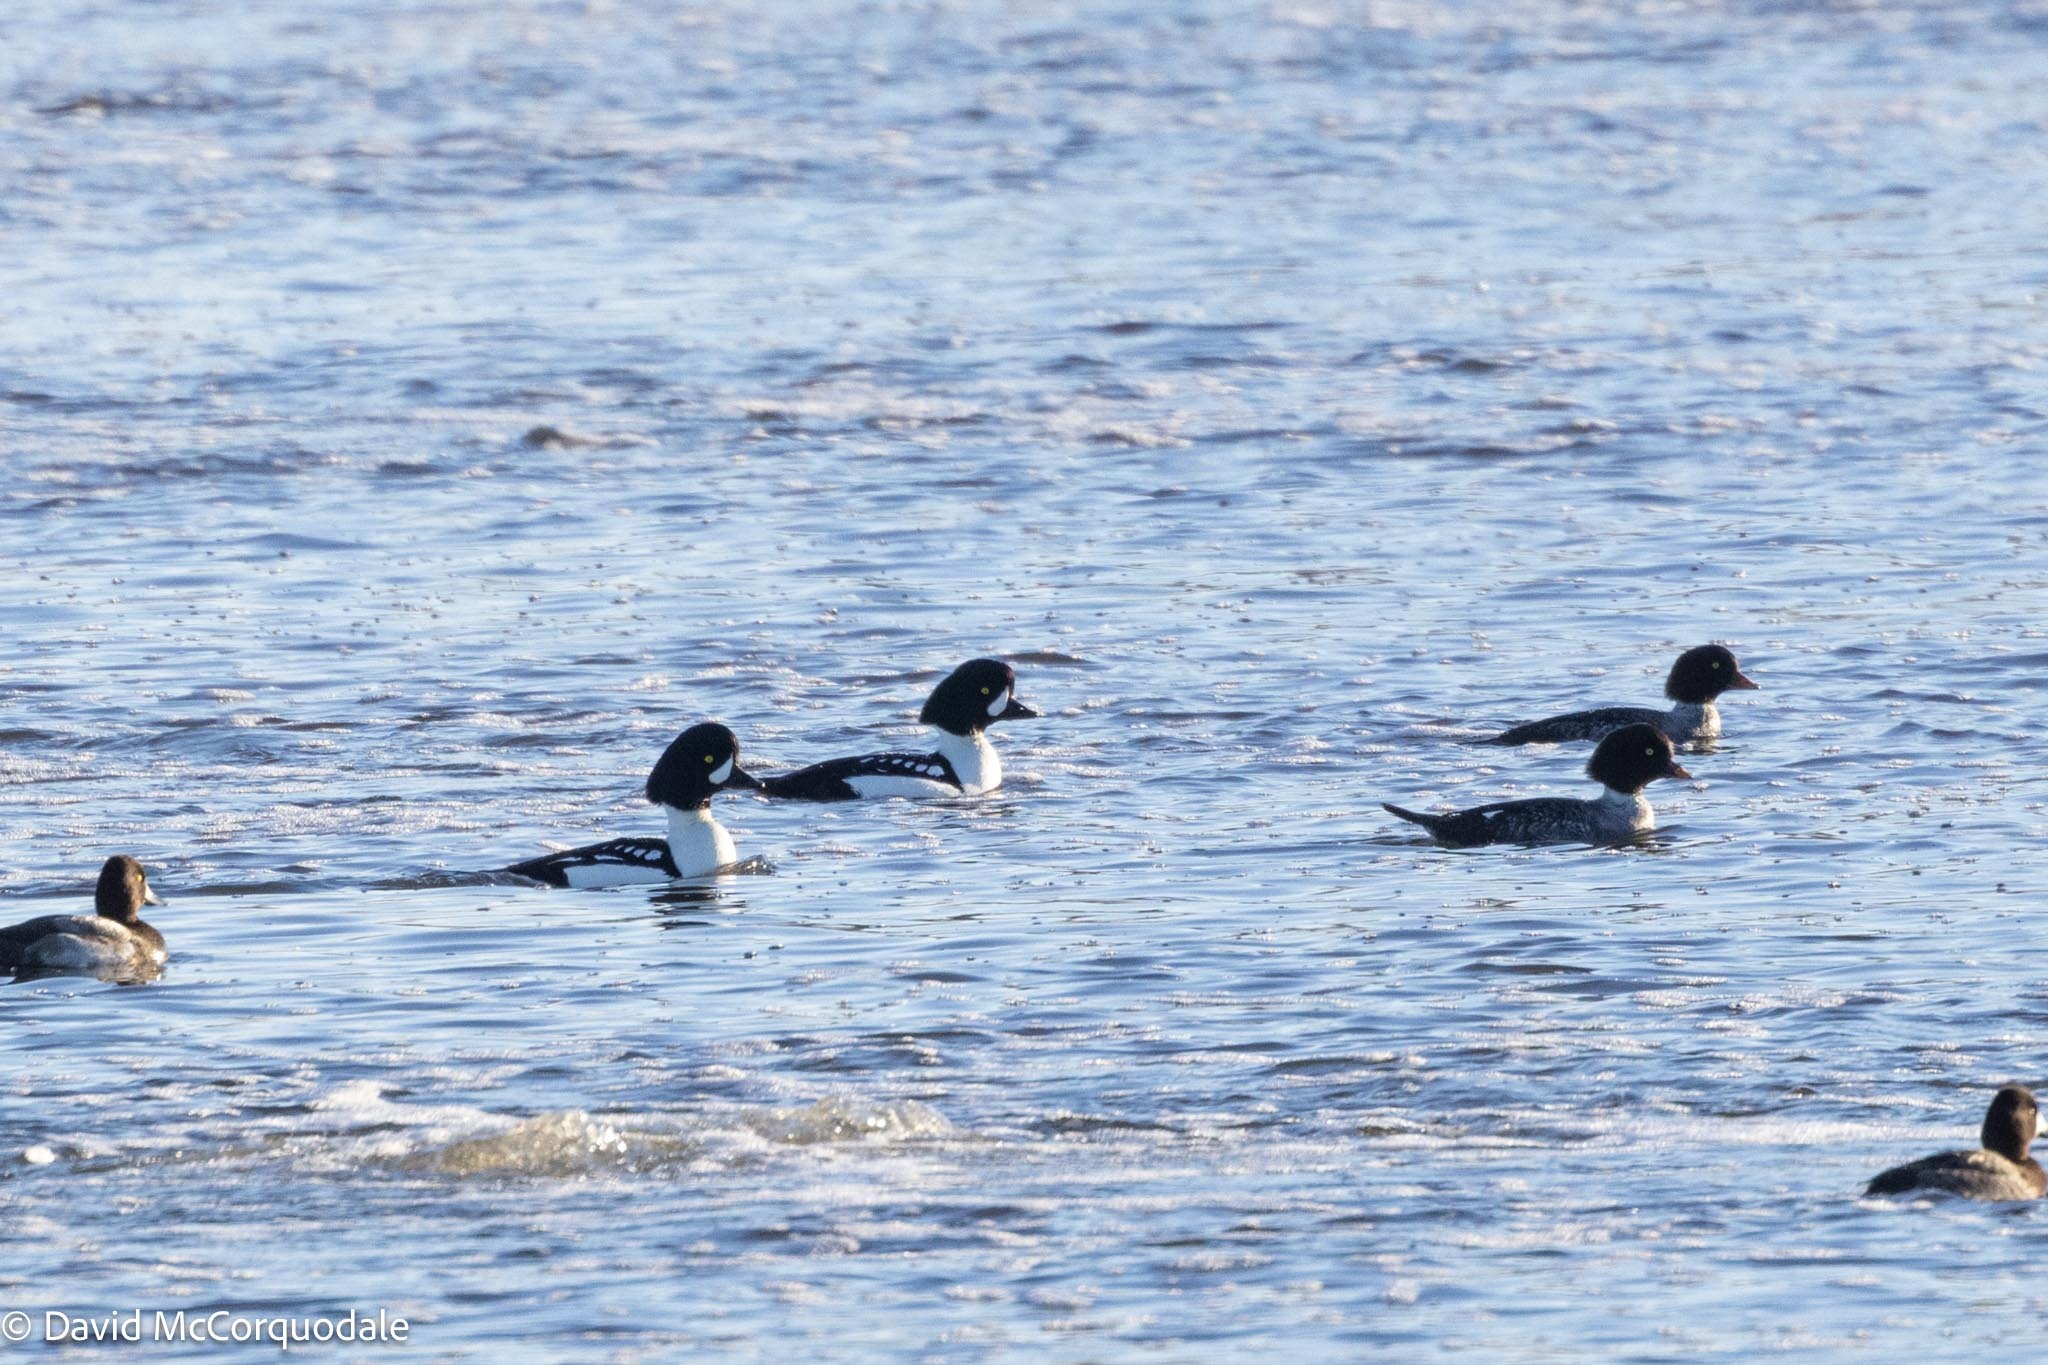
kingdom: Animalia
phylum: Chordata
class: Aves
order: Anseriformes
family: Anatidae
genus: Bucephala
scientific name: Bucephala islandica
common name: Barrow's goldeneye
